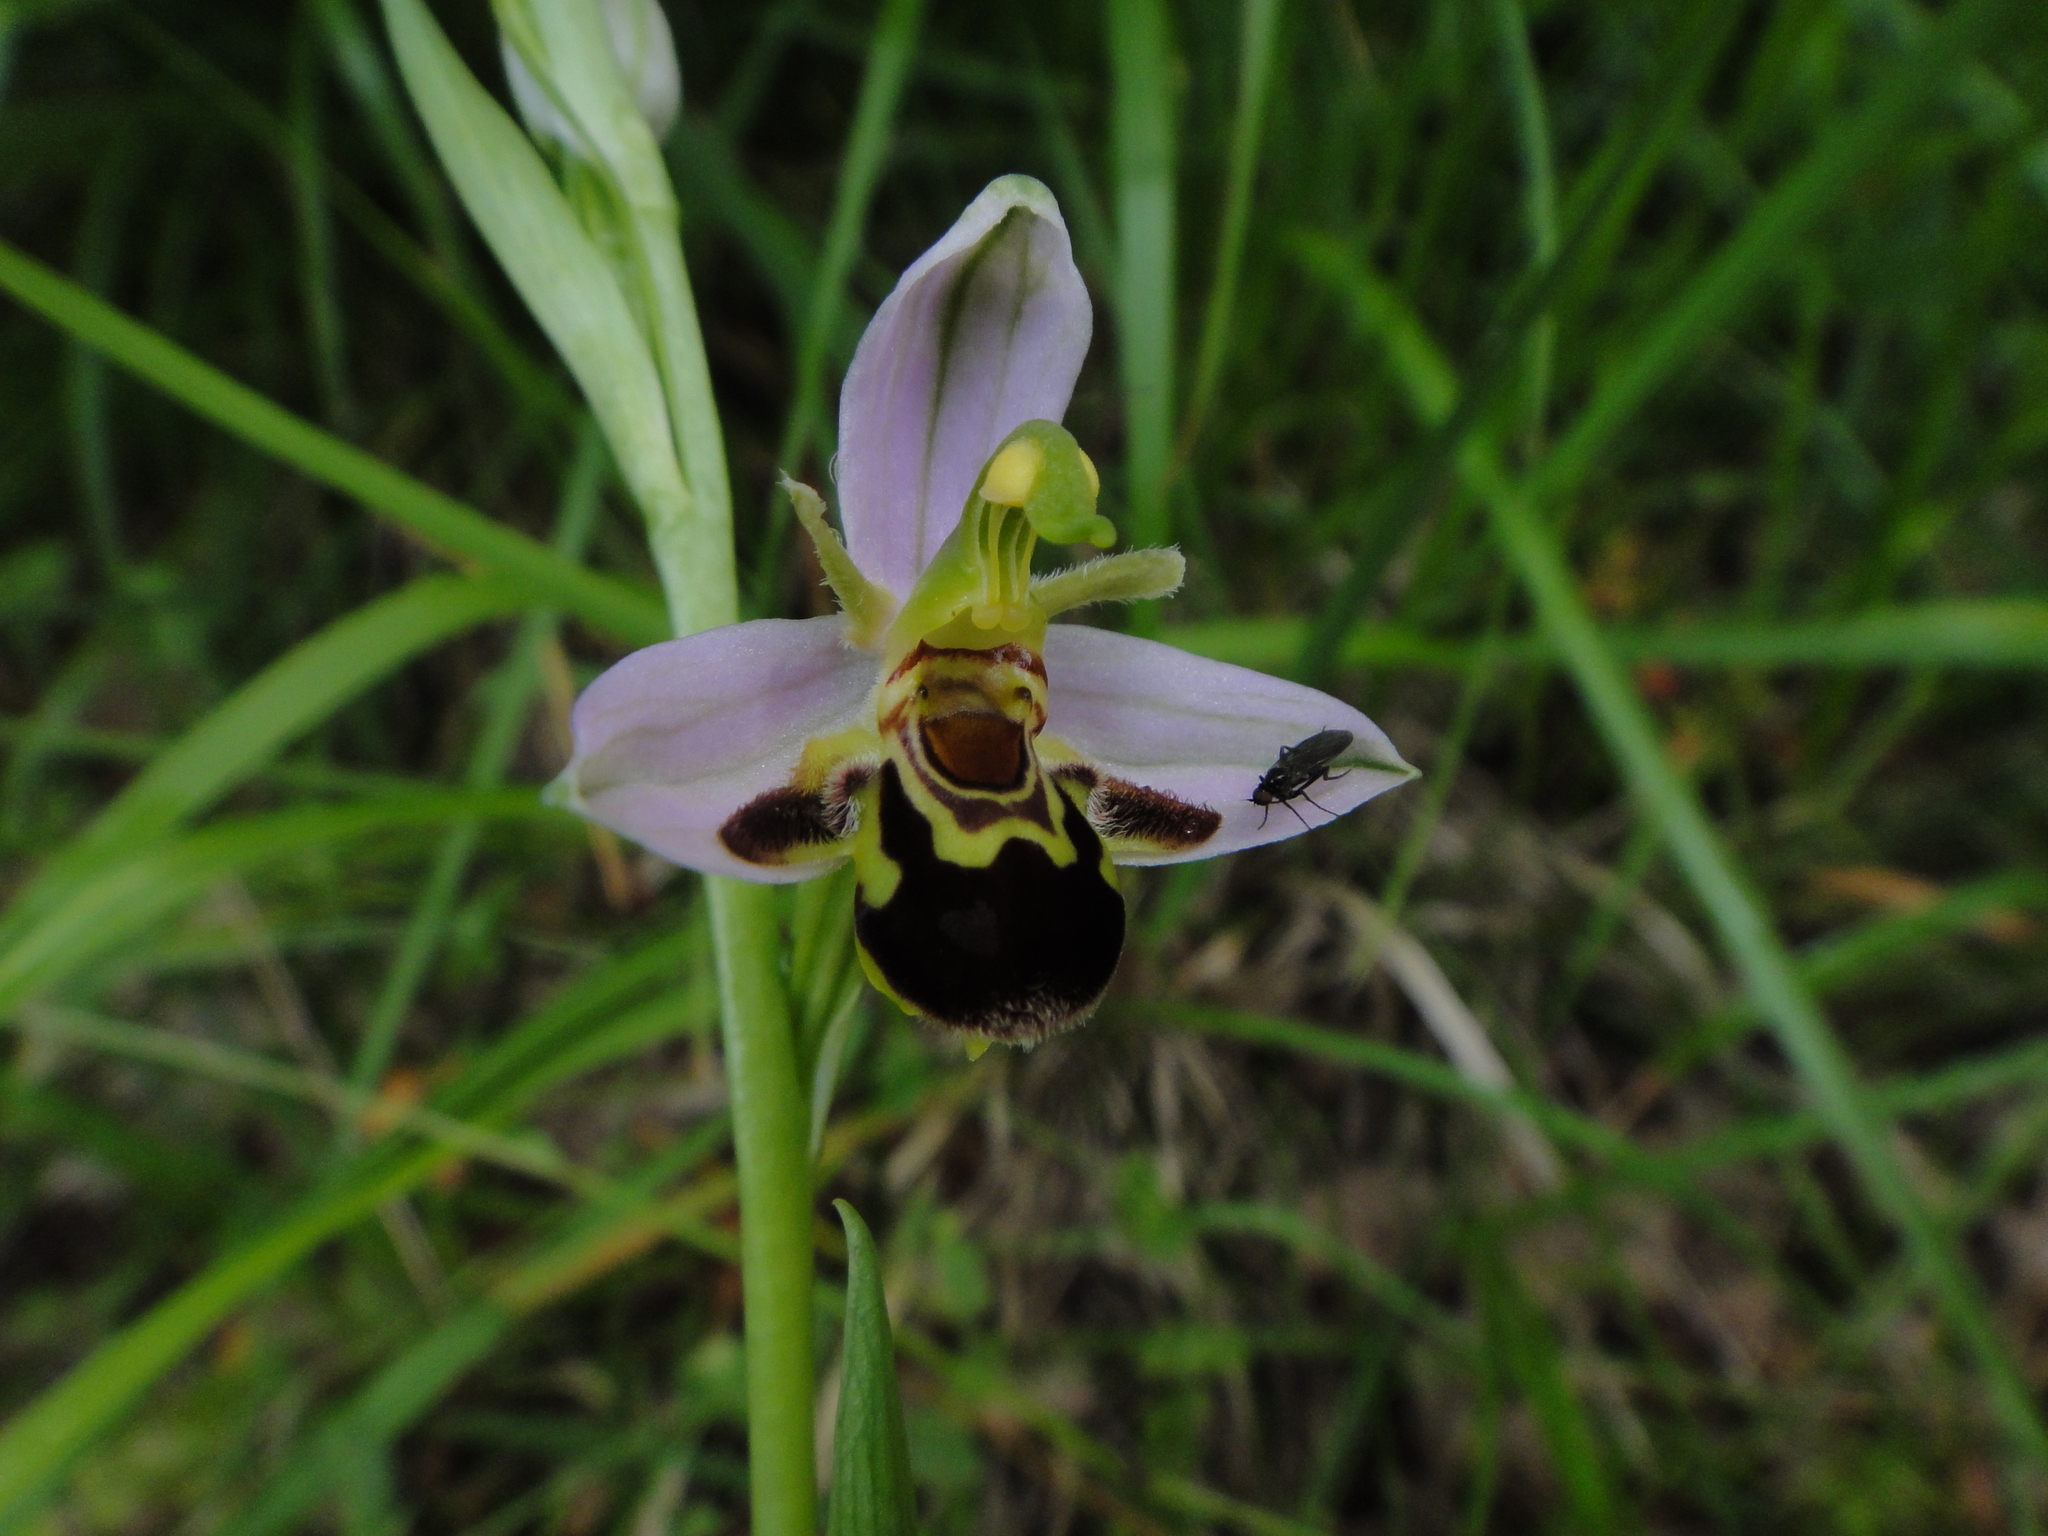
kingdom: Plantae
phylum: Tracheophyta
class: Liliopsida
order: Asparagales
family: Orchidaceae
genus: Ophrys
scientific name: Ophrys apifera
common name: Bee orchid
